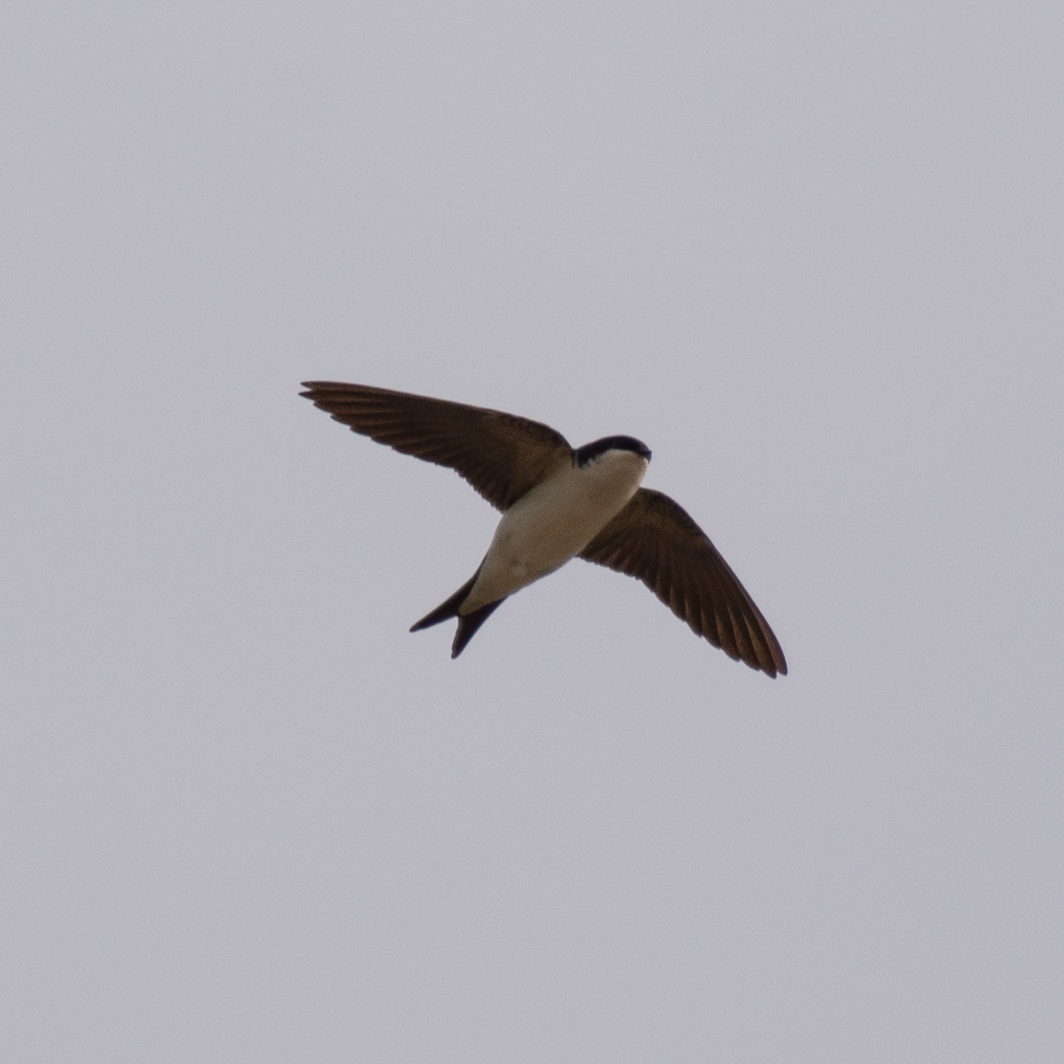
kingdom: Animalia
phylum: Chordata
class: Aves
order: Passeriformes
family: Hirundinidae
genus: Delichon
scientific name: Delichon urbicum
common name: Common house martin
